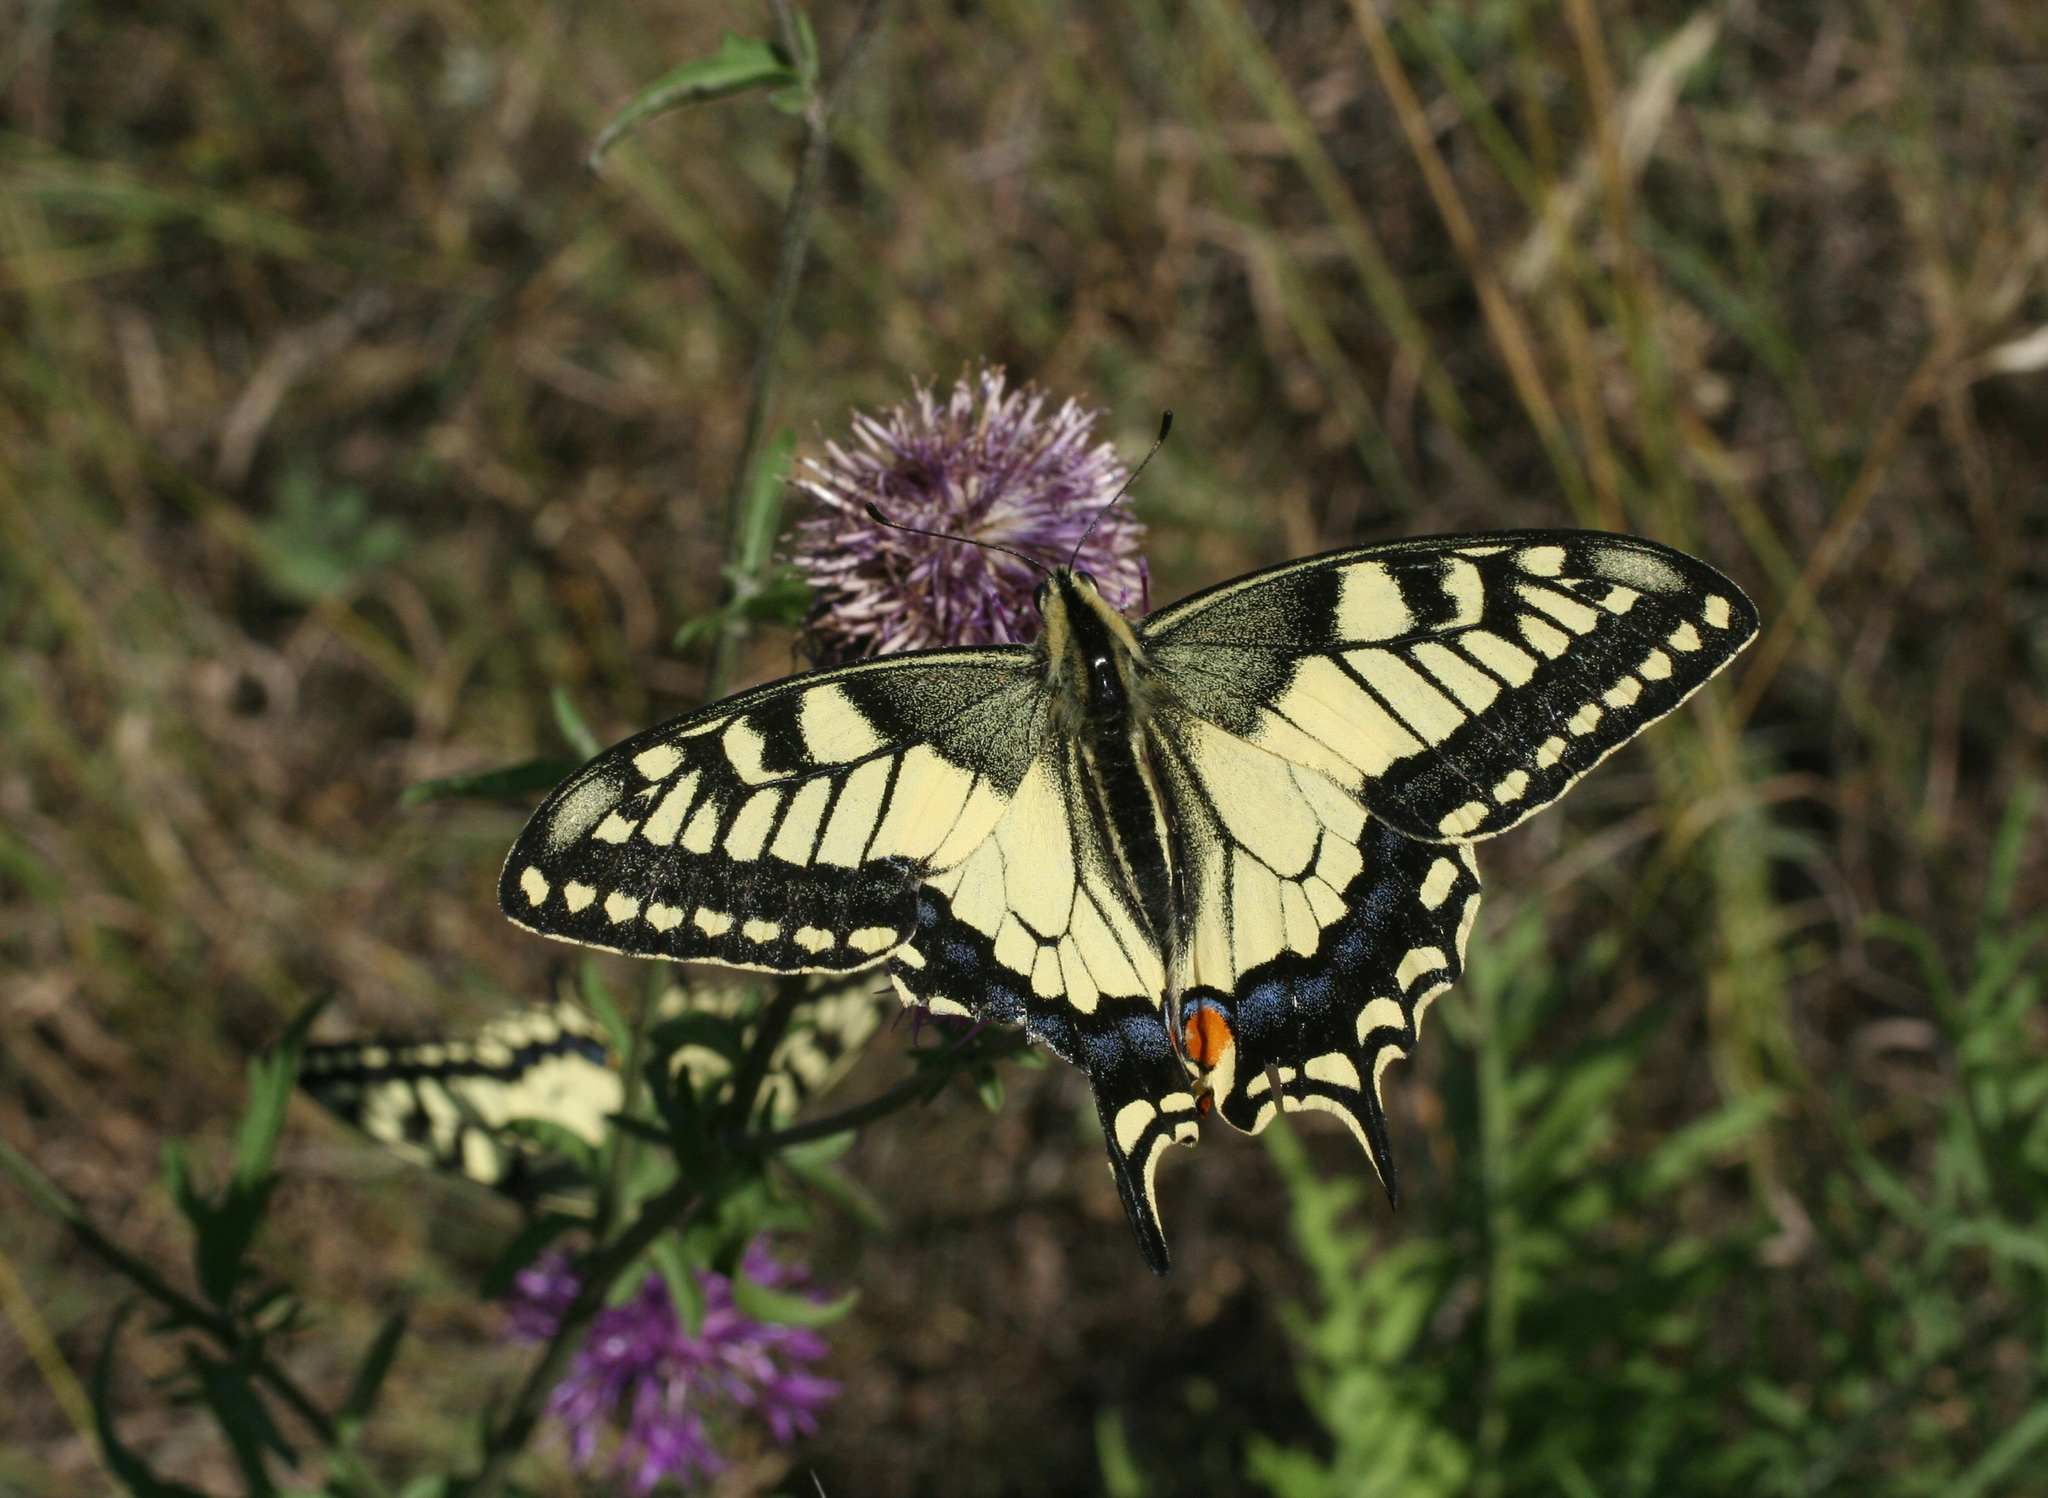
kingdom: Animalia
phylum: Arthropoda
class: Insecta
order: Lepidoptera
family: Papilionidae
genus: Papilio
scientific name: Papilio machaon
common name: Swallowtail
